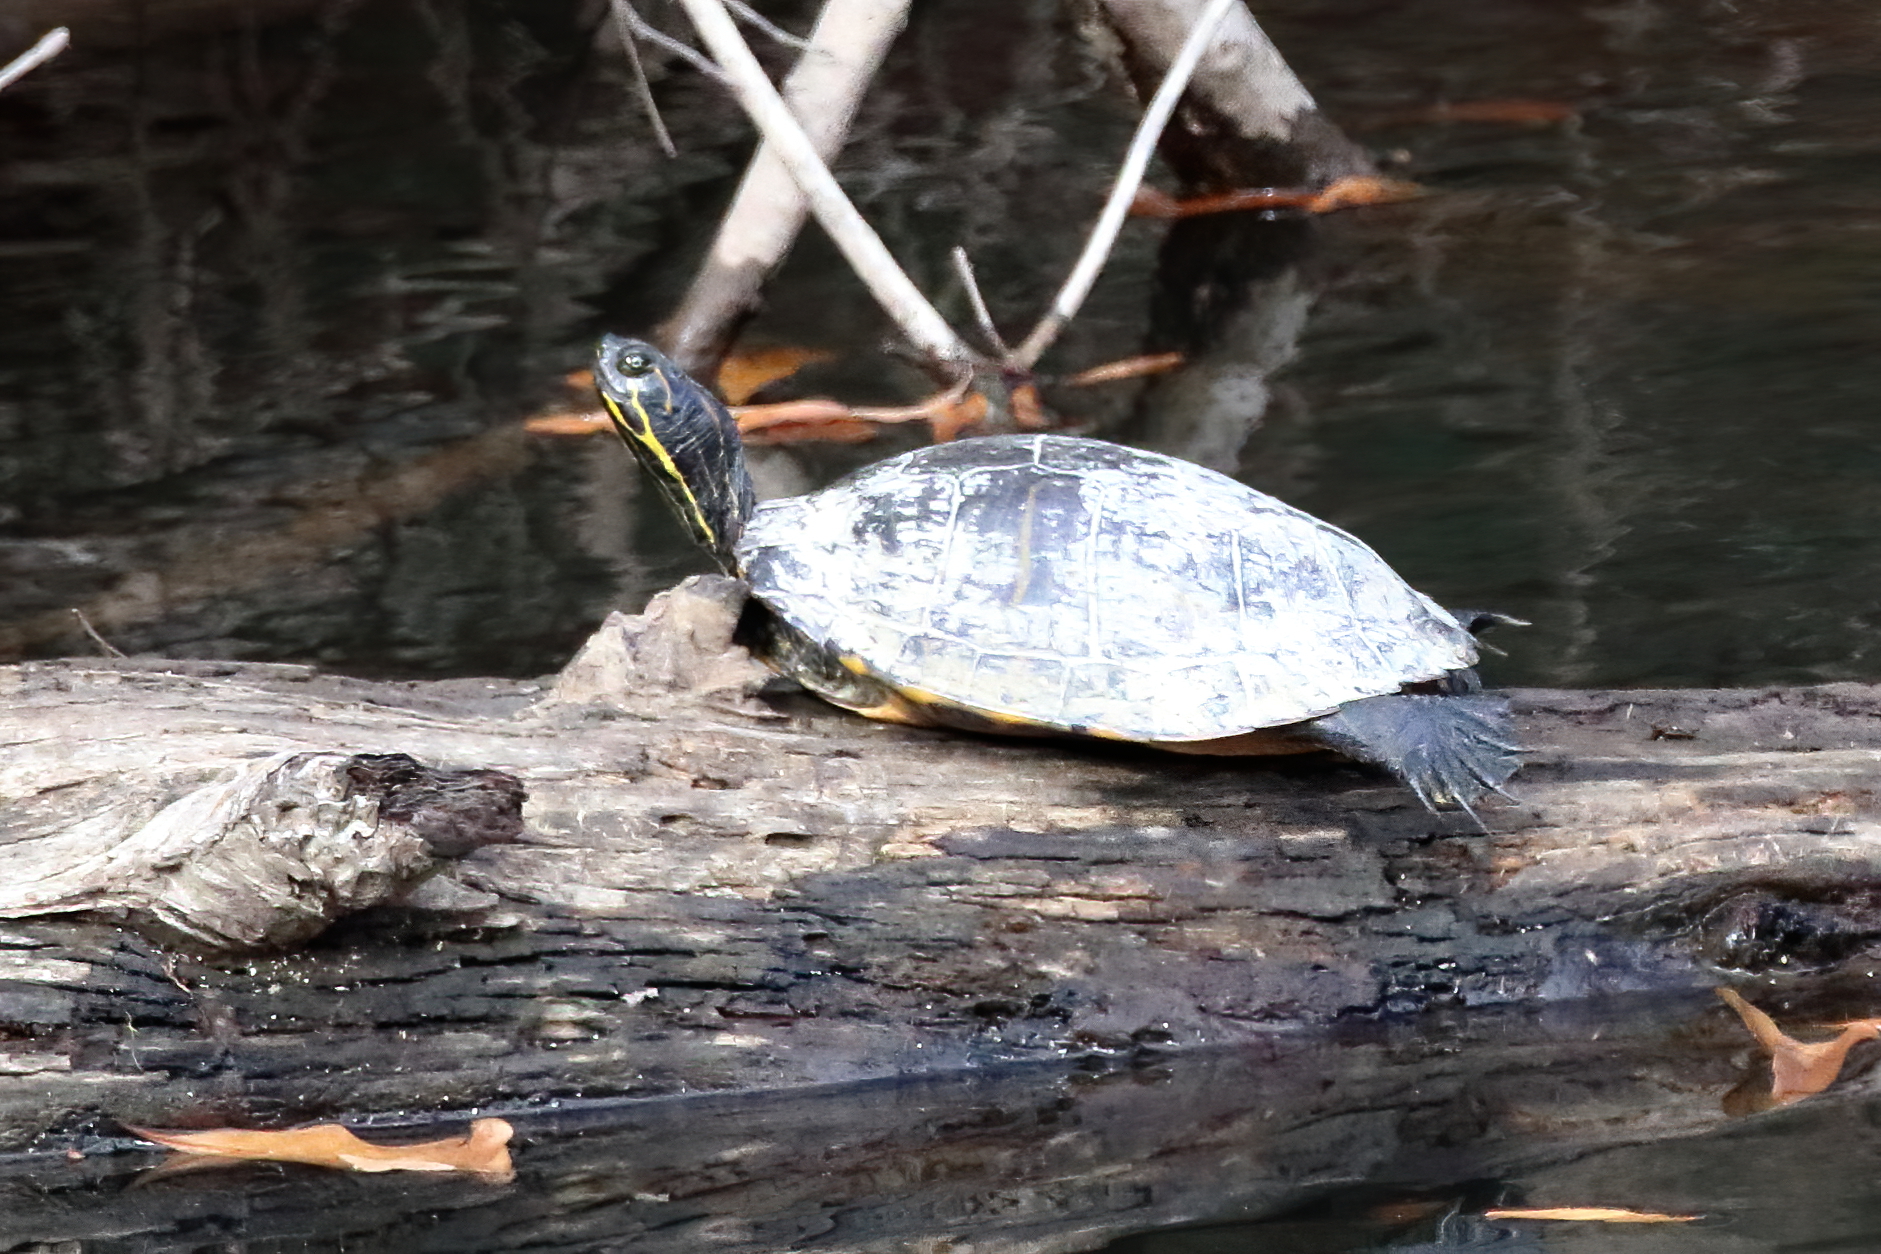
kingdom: Animalia
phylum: Chordata
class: Testudines
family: Emydidae
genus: Pseudemys
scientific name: Pseudemys concinna
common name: Eastern river cooter
